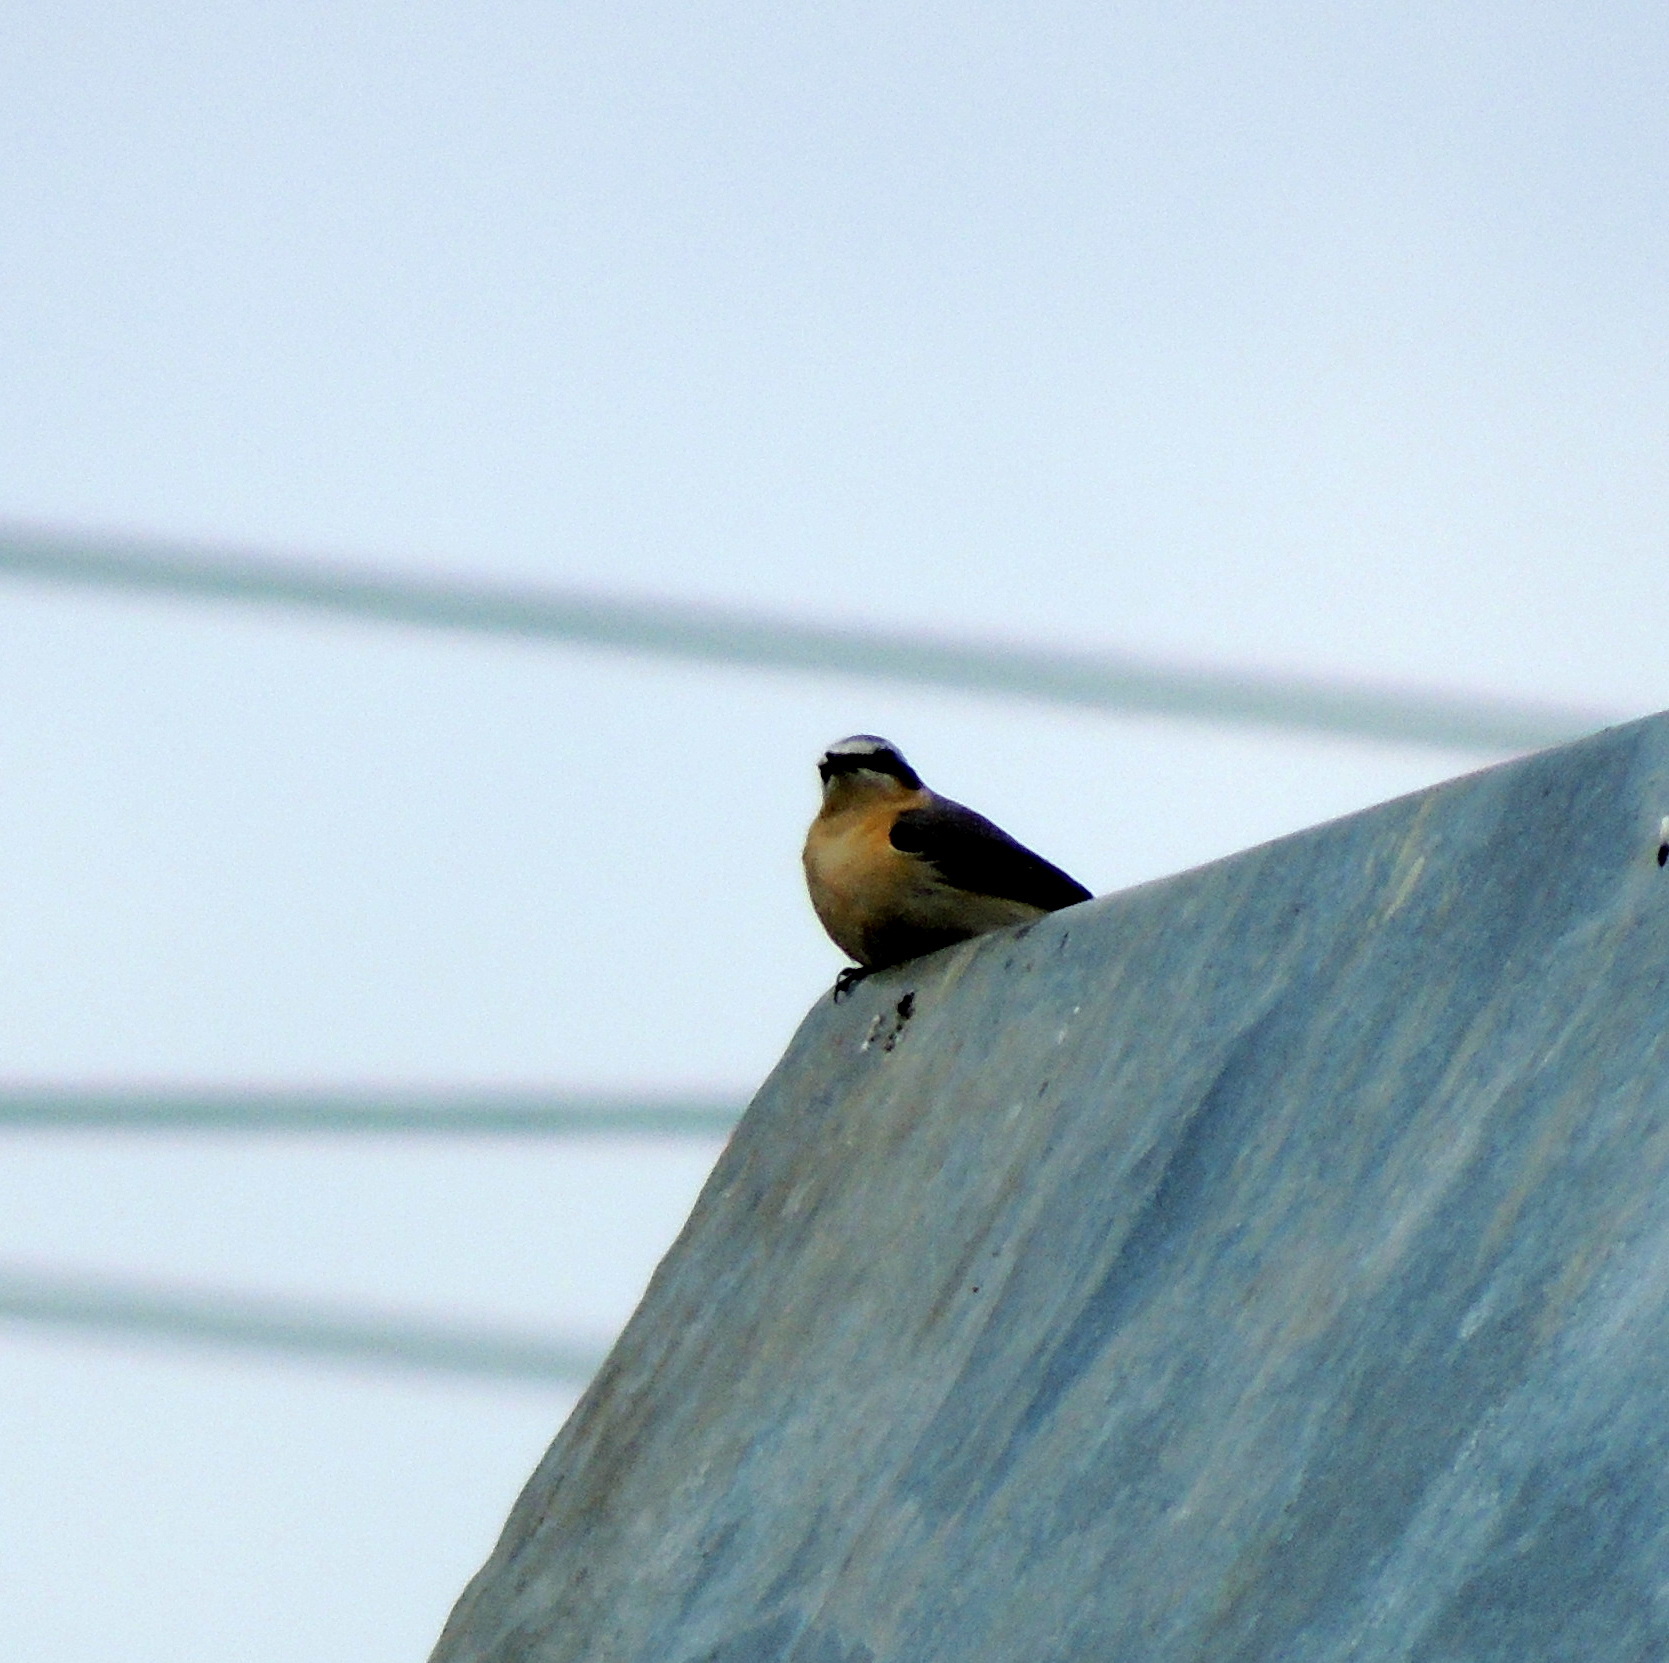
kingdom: Animalia
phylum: Chordata
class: Aves
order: Passeriformes
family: Muscicapidae
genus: Oenanthe
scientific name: Oenanthe oenanthe
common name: Northern wheatear
